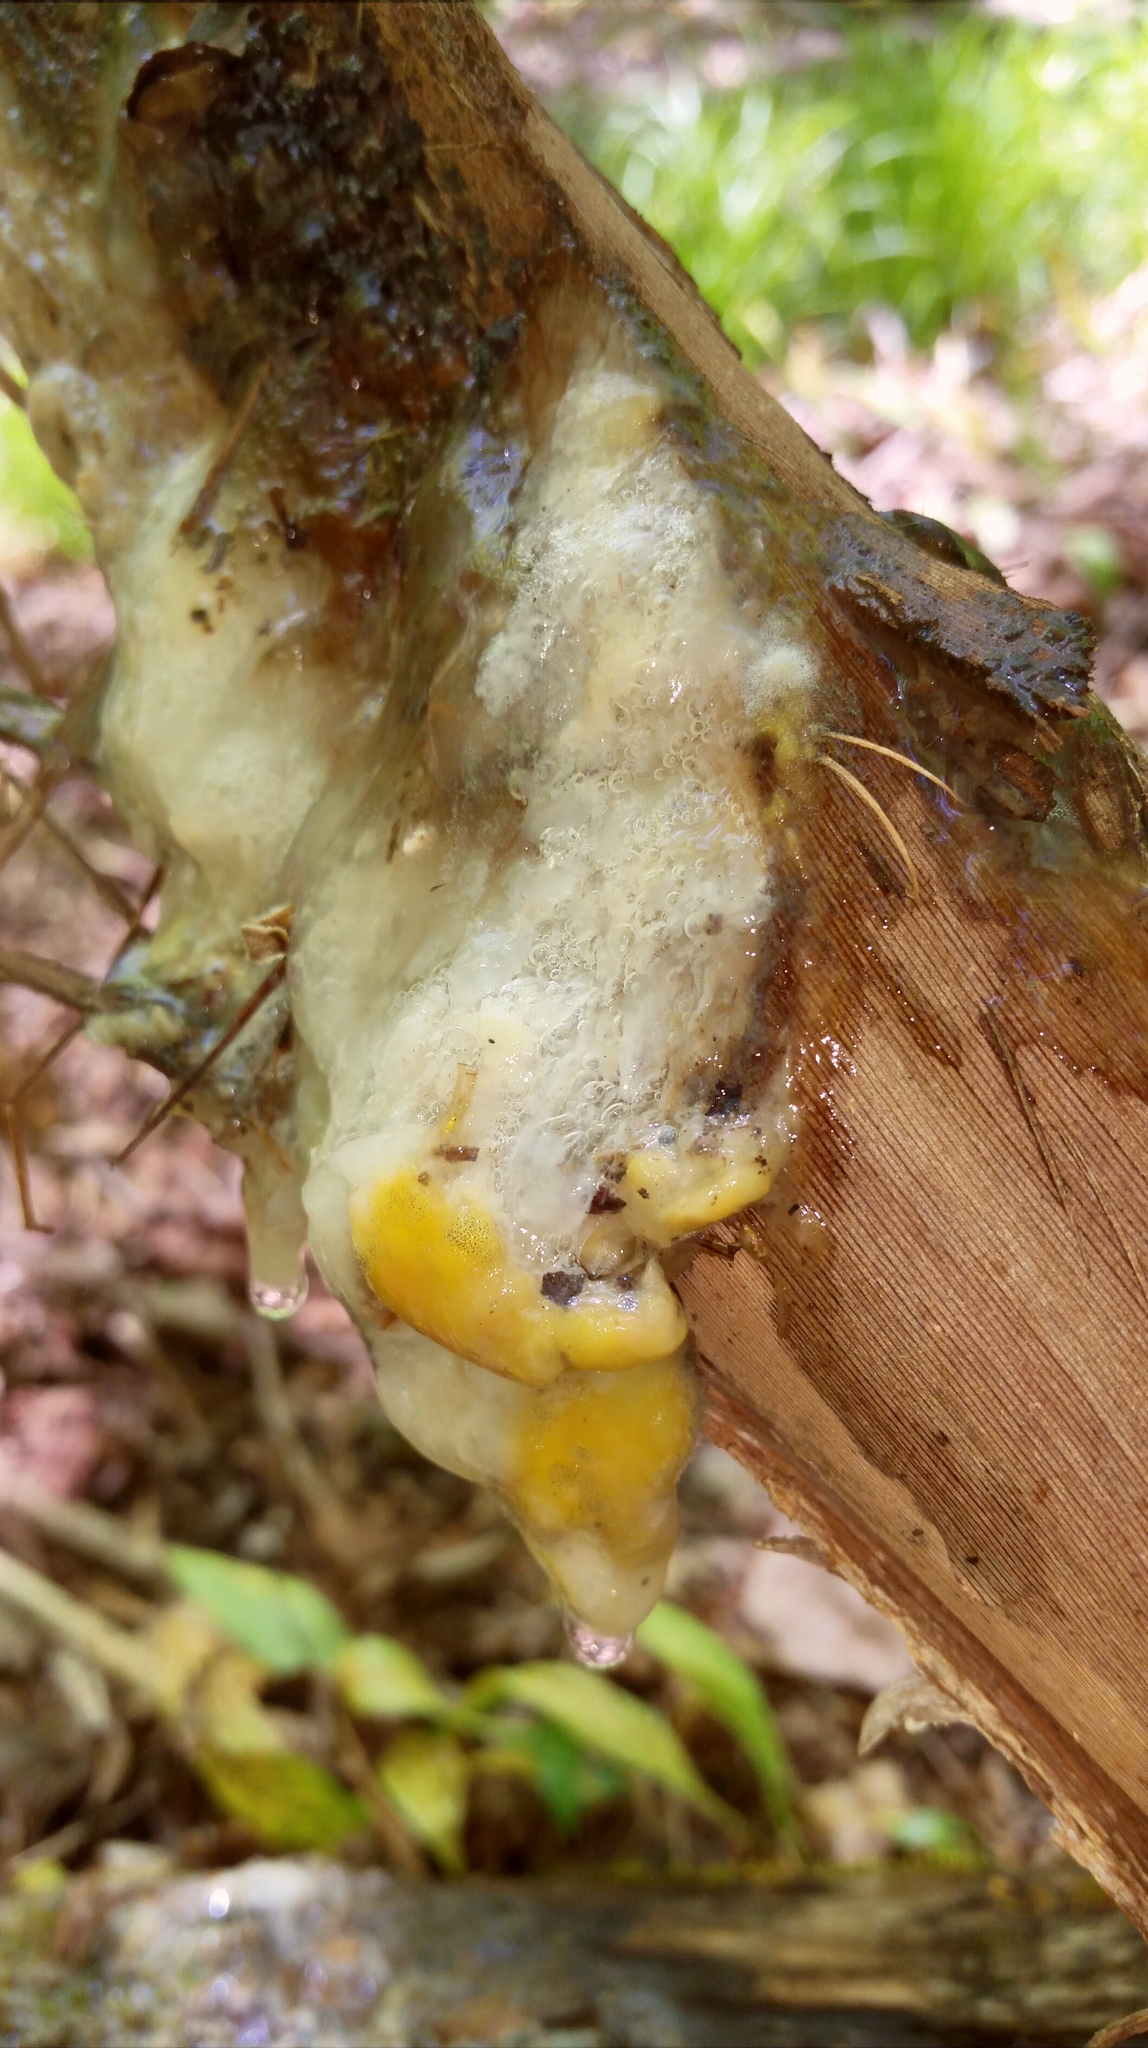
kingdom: Fungi
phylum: Ascomycota
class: Sordariomycetes
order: Hypocreales
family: Nectriaceae
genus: Fusicolla
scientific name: Fusicolla merismoides
